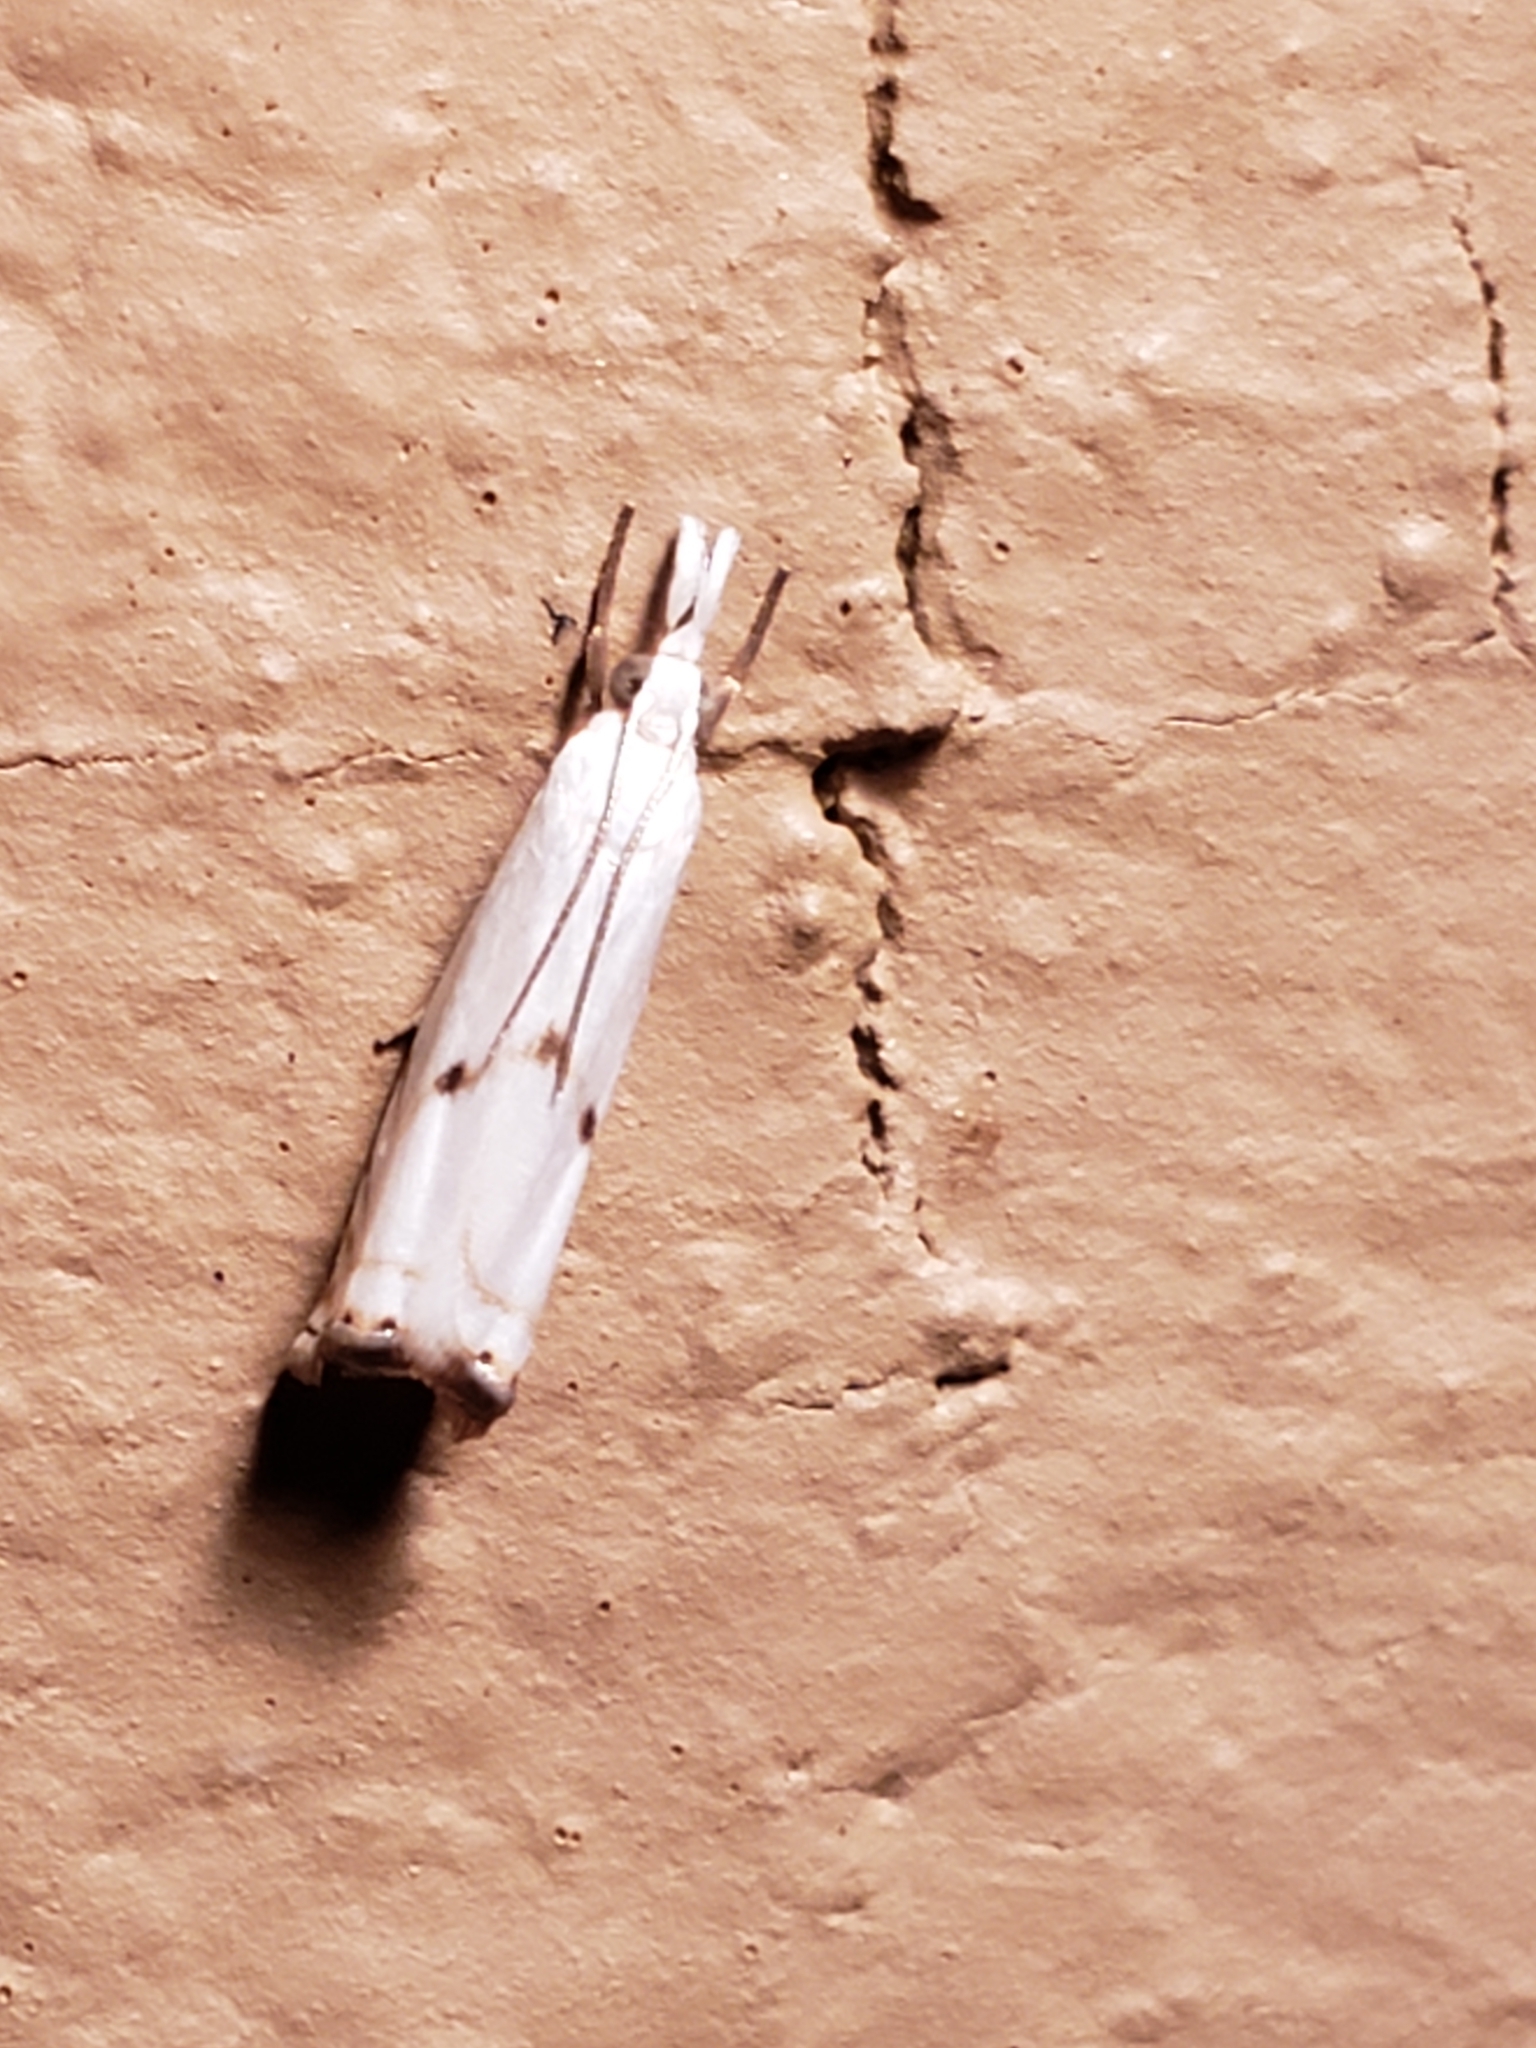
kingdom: Animalia
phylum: Arthropoda
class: Insecta
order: Lepidoptera
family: Crambidae
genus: Microcrambus
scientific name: Microcrambus biguttellus
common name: Gold-stripe grass-veneer moth
